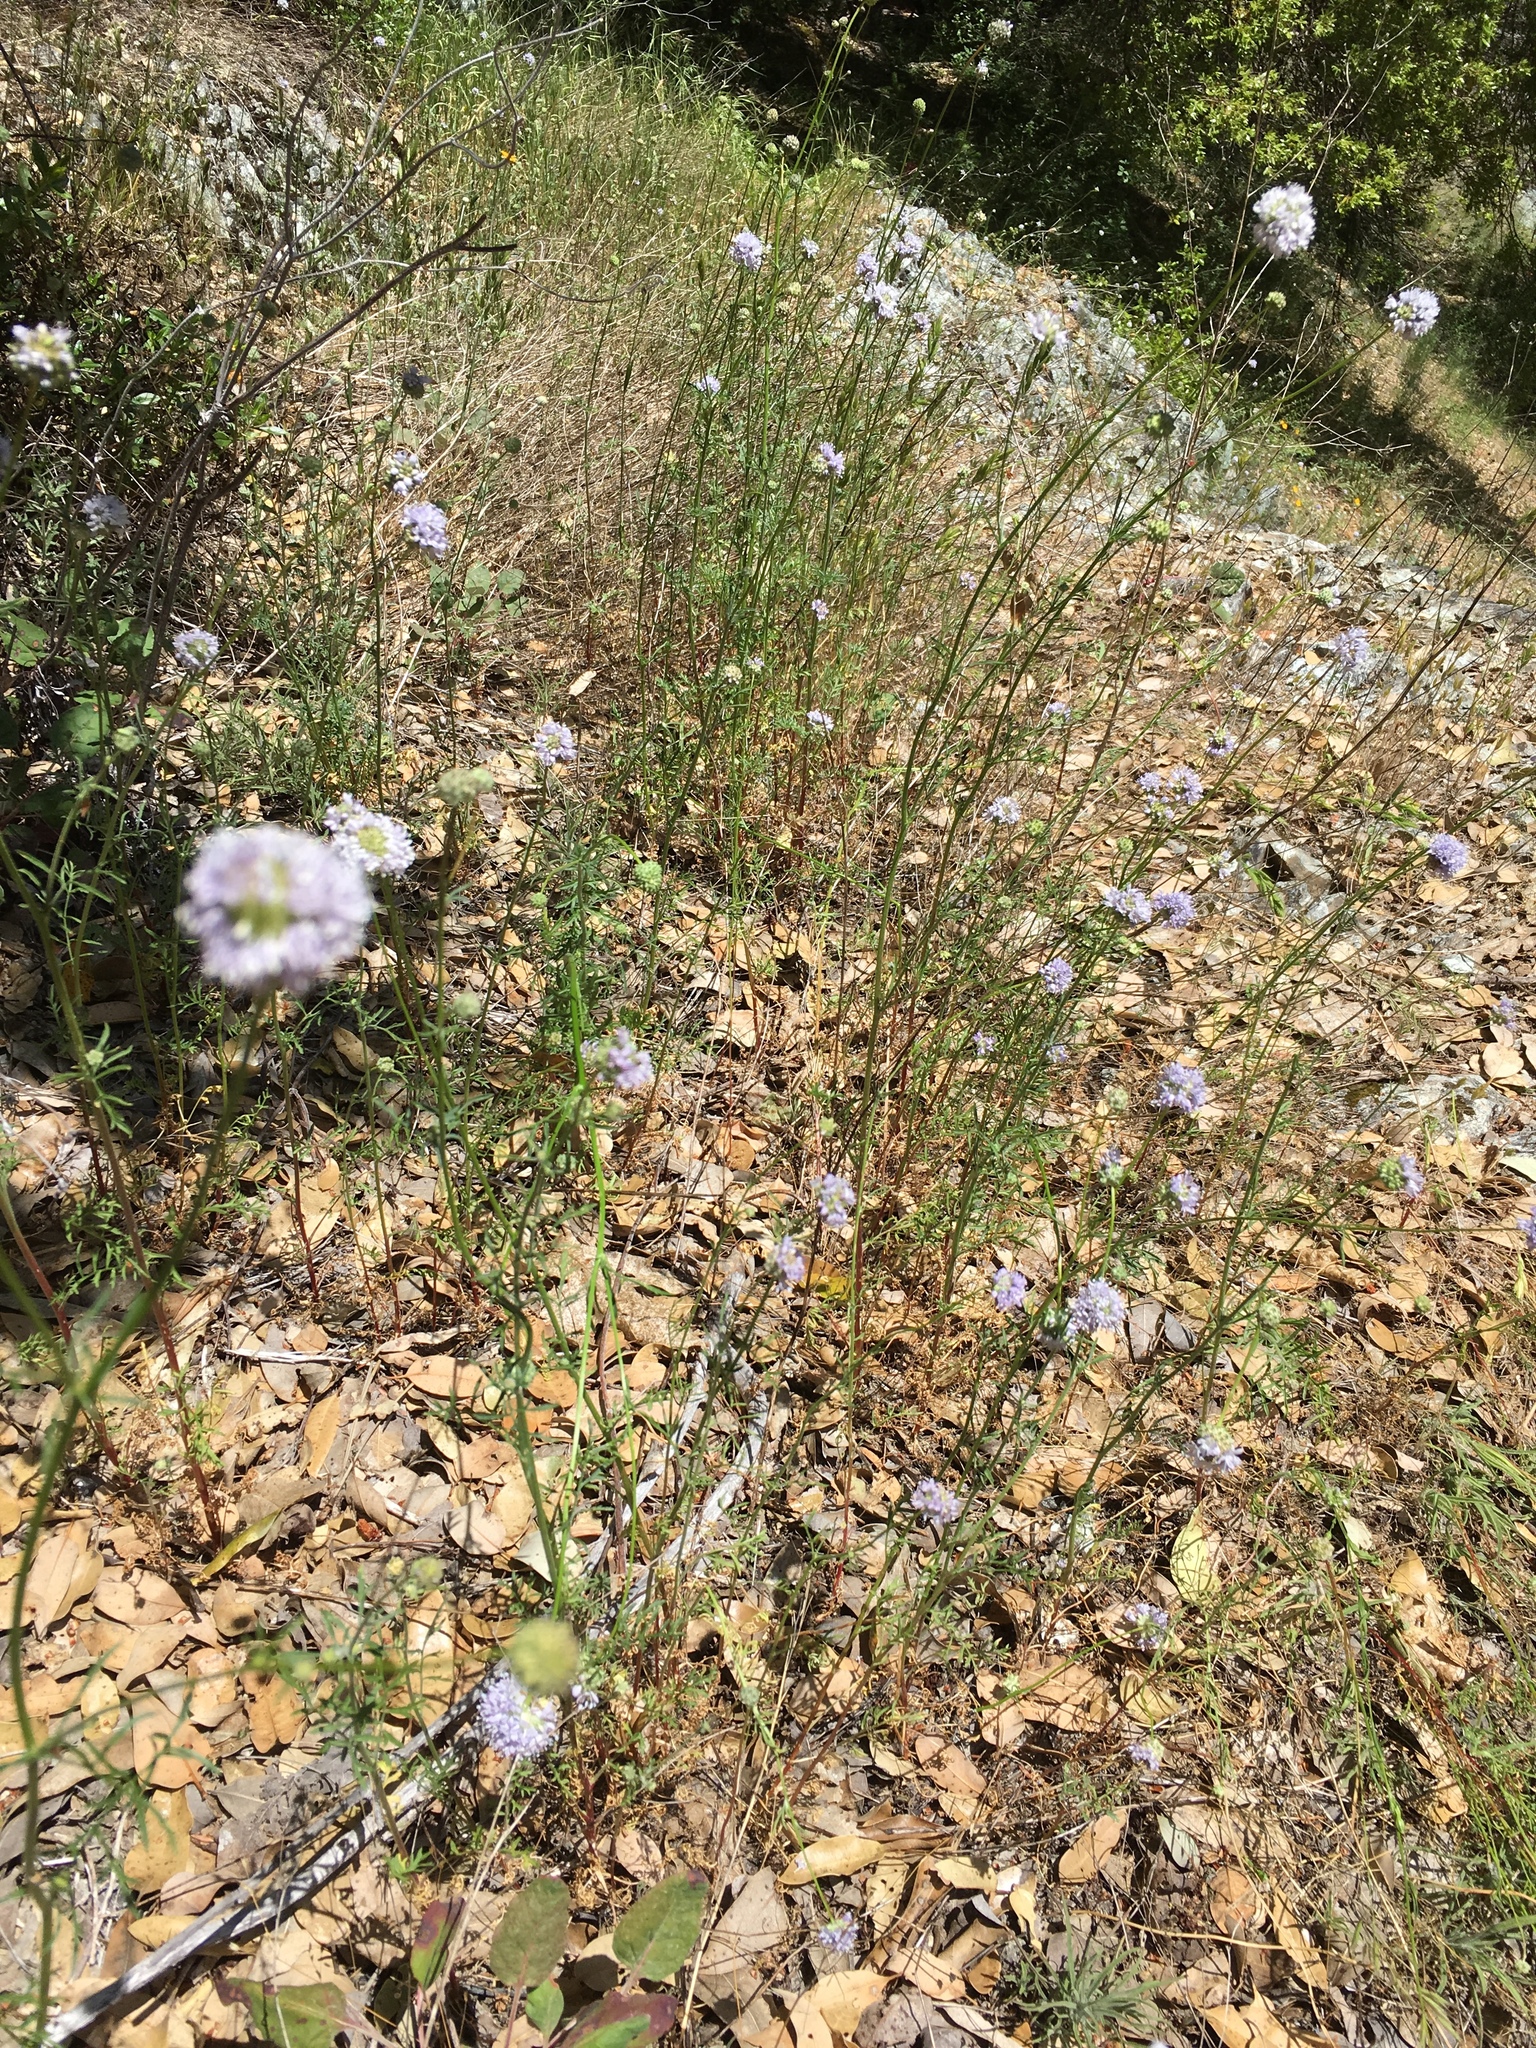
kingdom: Plantae
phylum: Tracheophyta
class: Magnoliopsida
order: Ericales
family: Polemoniaceae
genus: Gilia
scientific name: Gilia capitata
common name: Bluehead gilia
